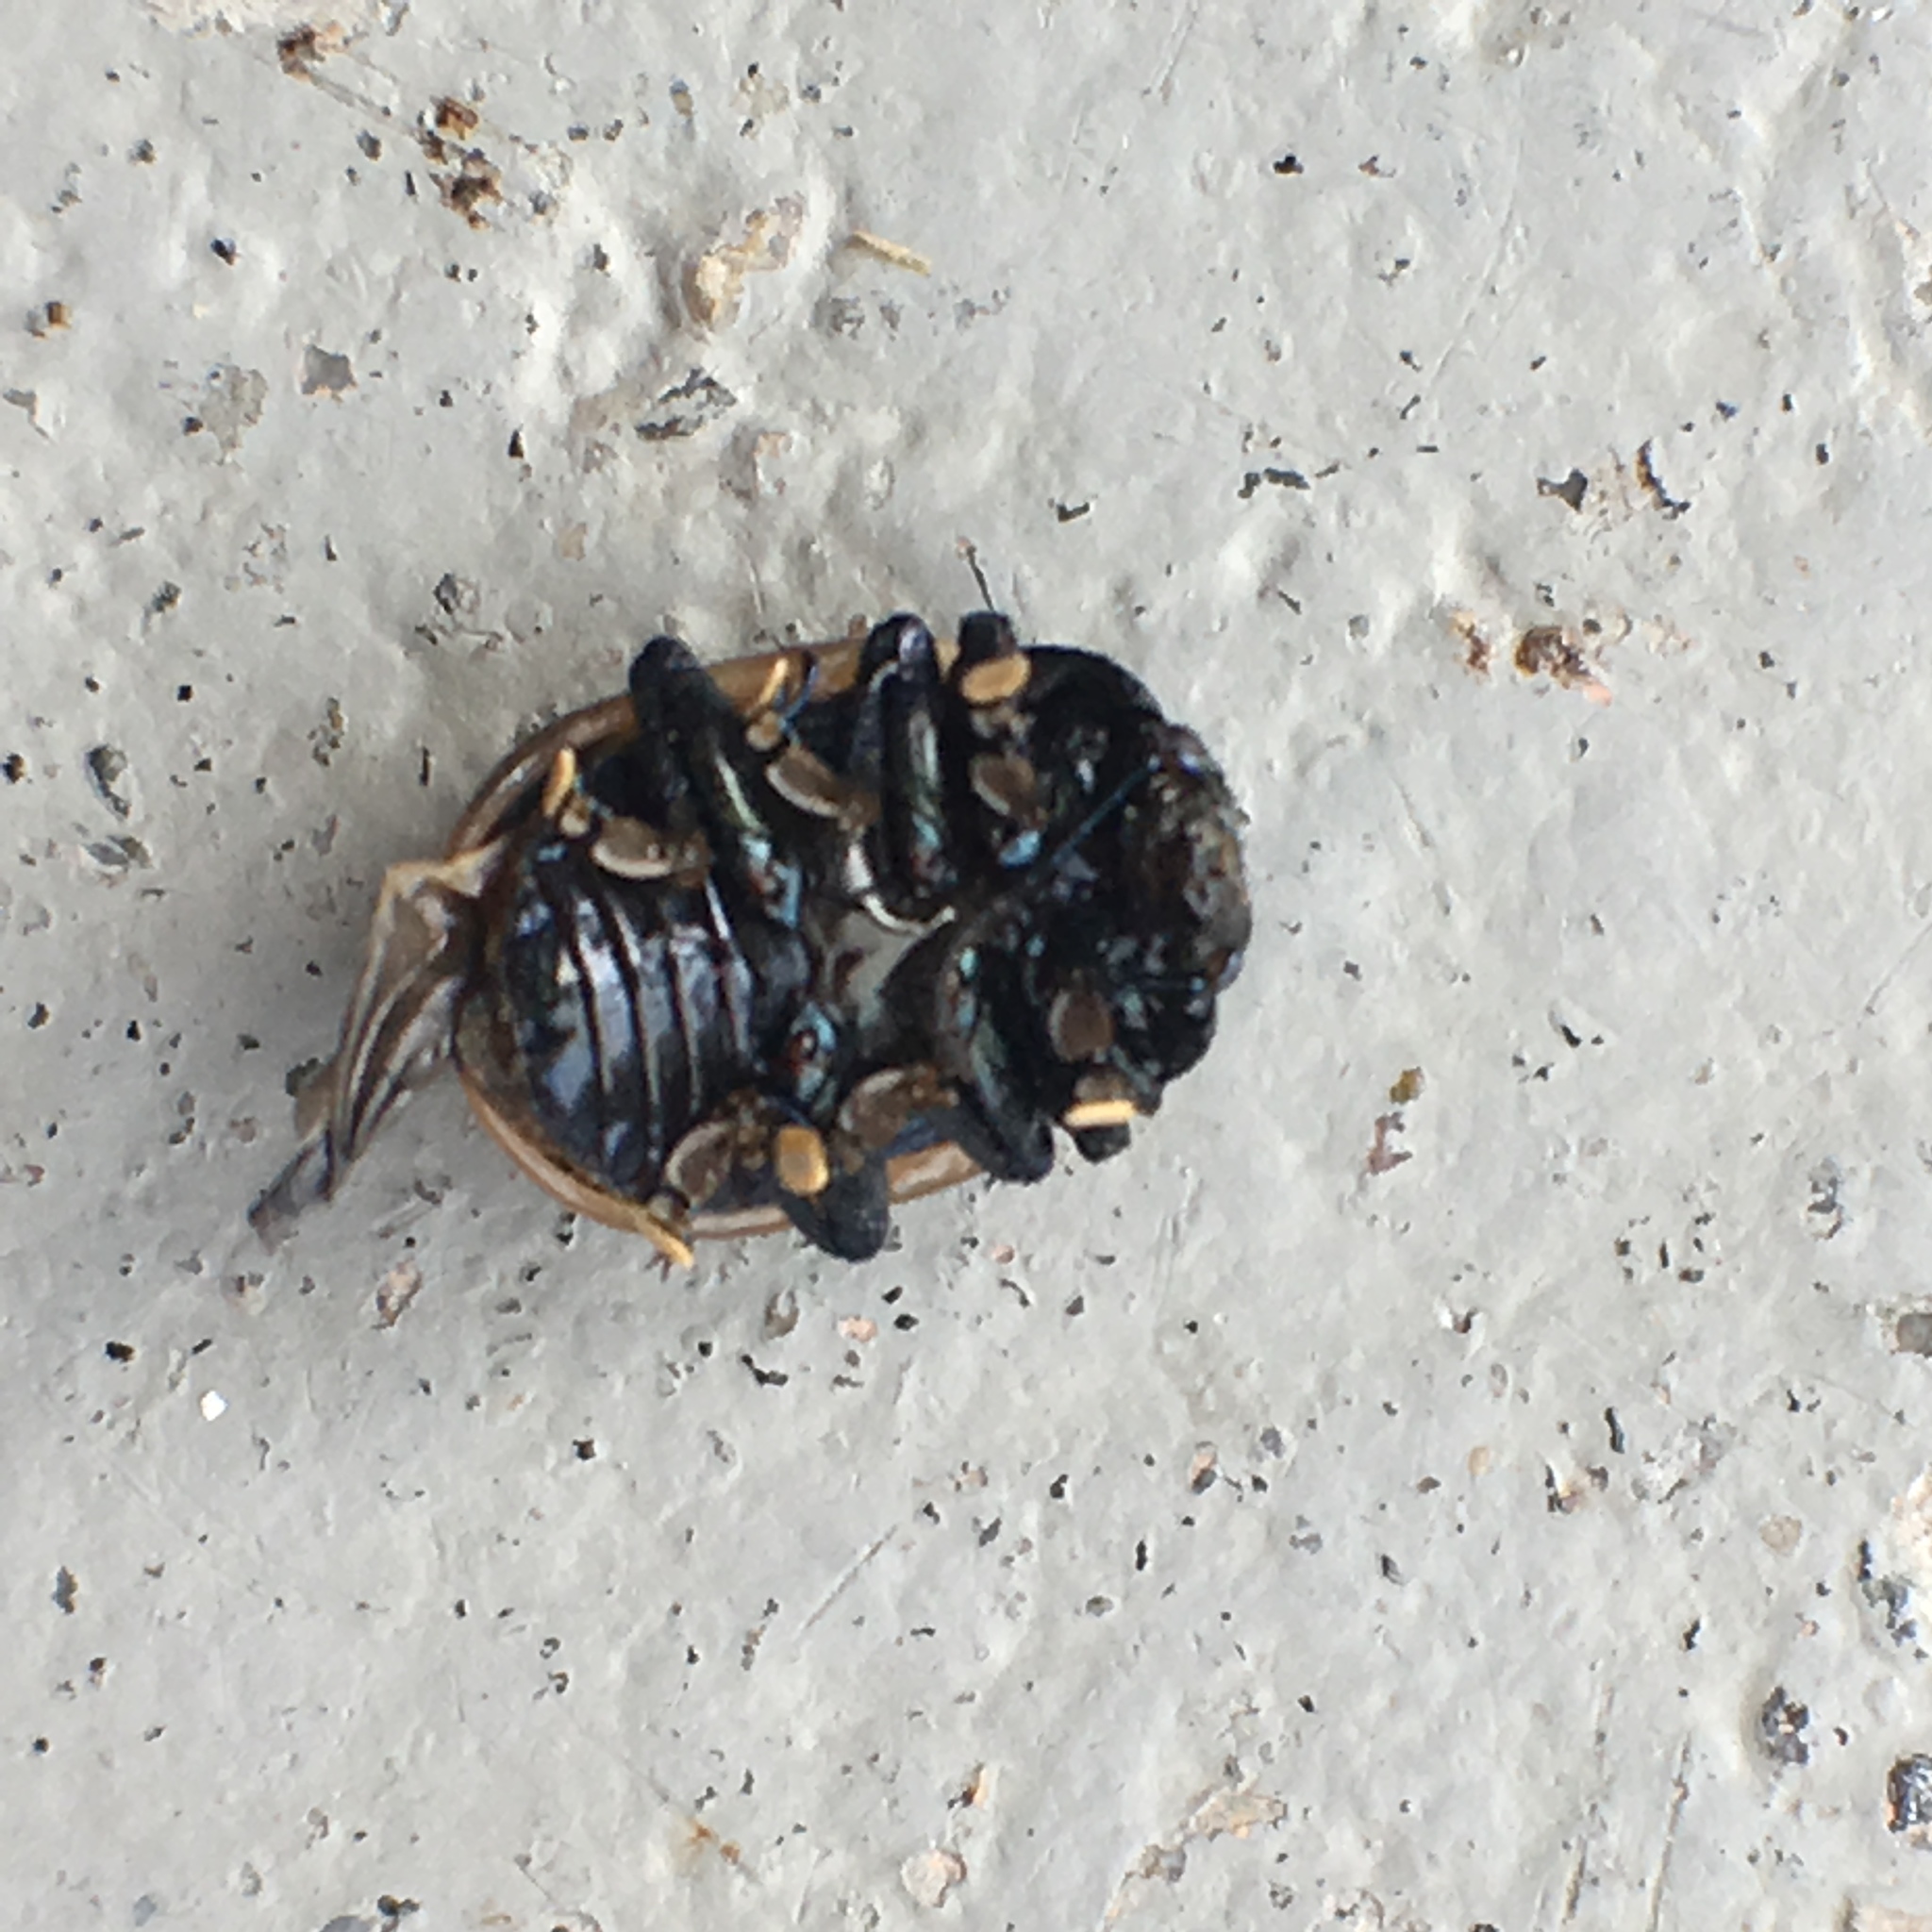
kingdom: Animalia
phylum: Arthropoda
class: Insecta
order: Coleoptera
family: Chrysomelidae
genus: Labidomera
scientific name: Labidomera clivicollis
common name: Swamp milkweed leaf beetle
